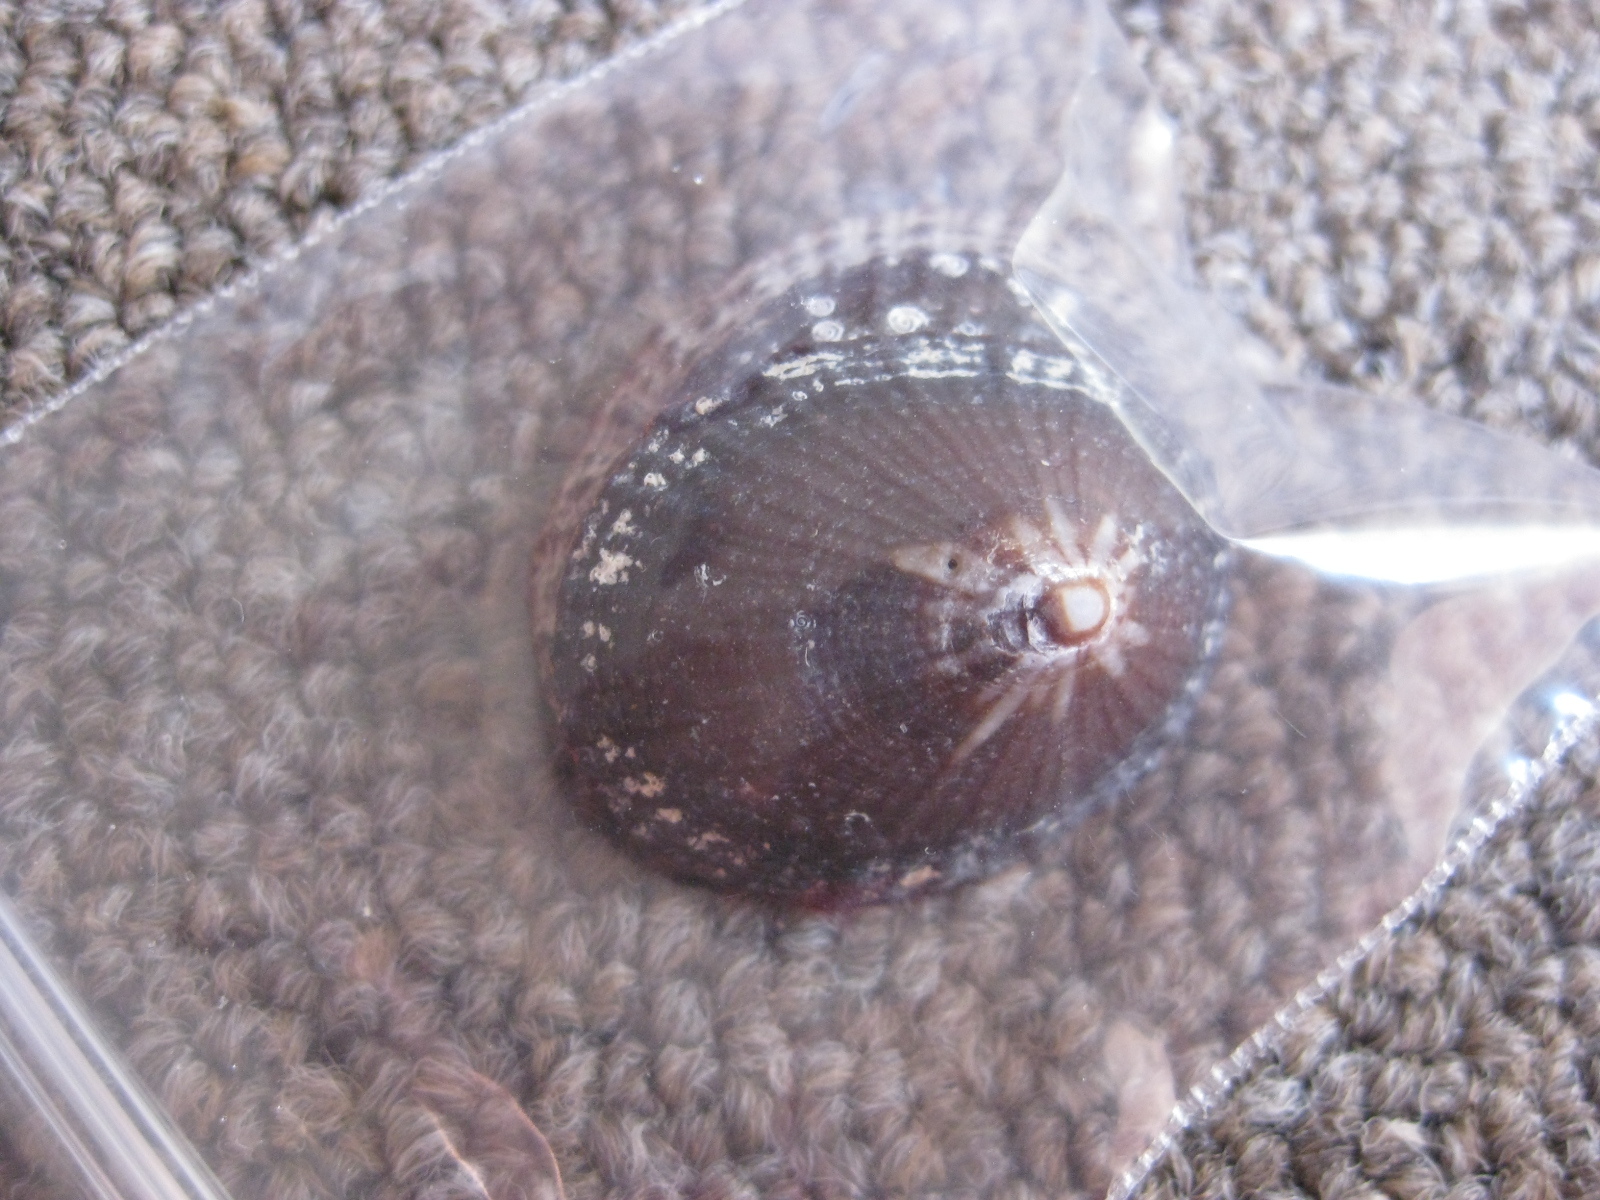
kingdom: Animalia
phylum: Mollusca
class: Gastropoda
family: Nacellidae
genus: Cellana
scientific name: Cellana stellifera
